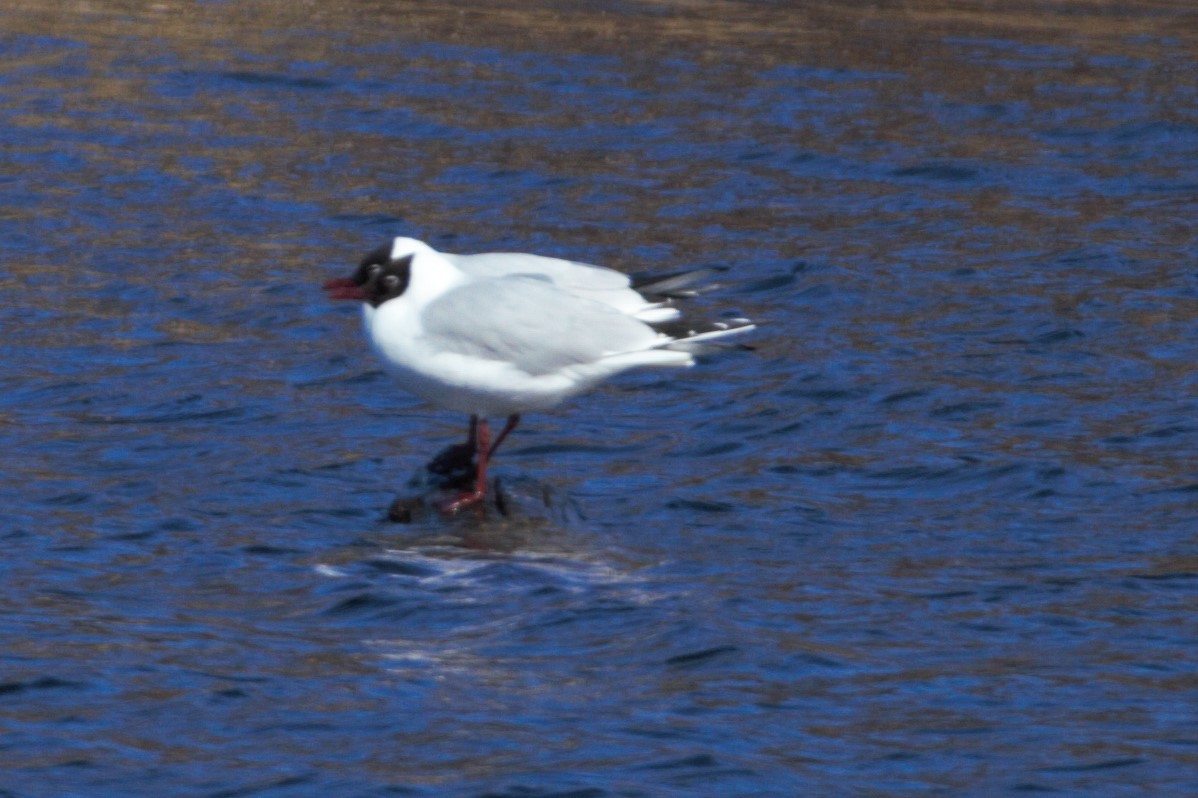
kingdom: Animalia
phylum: Chordata
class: Aves
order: Charadriiformes
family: Laridae
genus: Chroicocephalus
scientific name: Chroicocephalus ridibundus
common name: Black-headed gull
